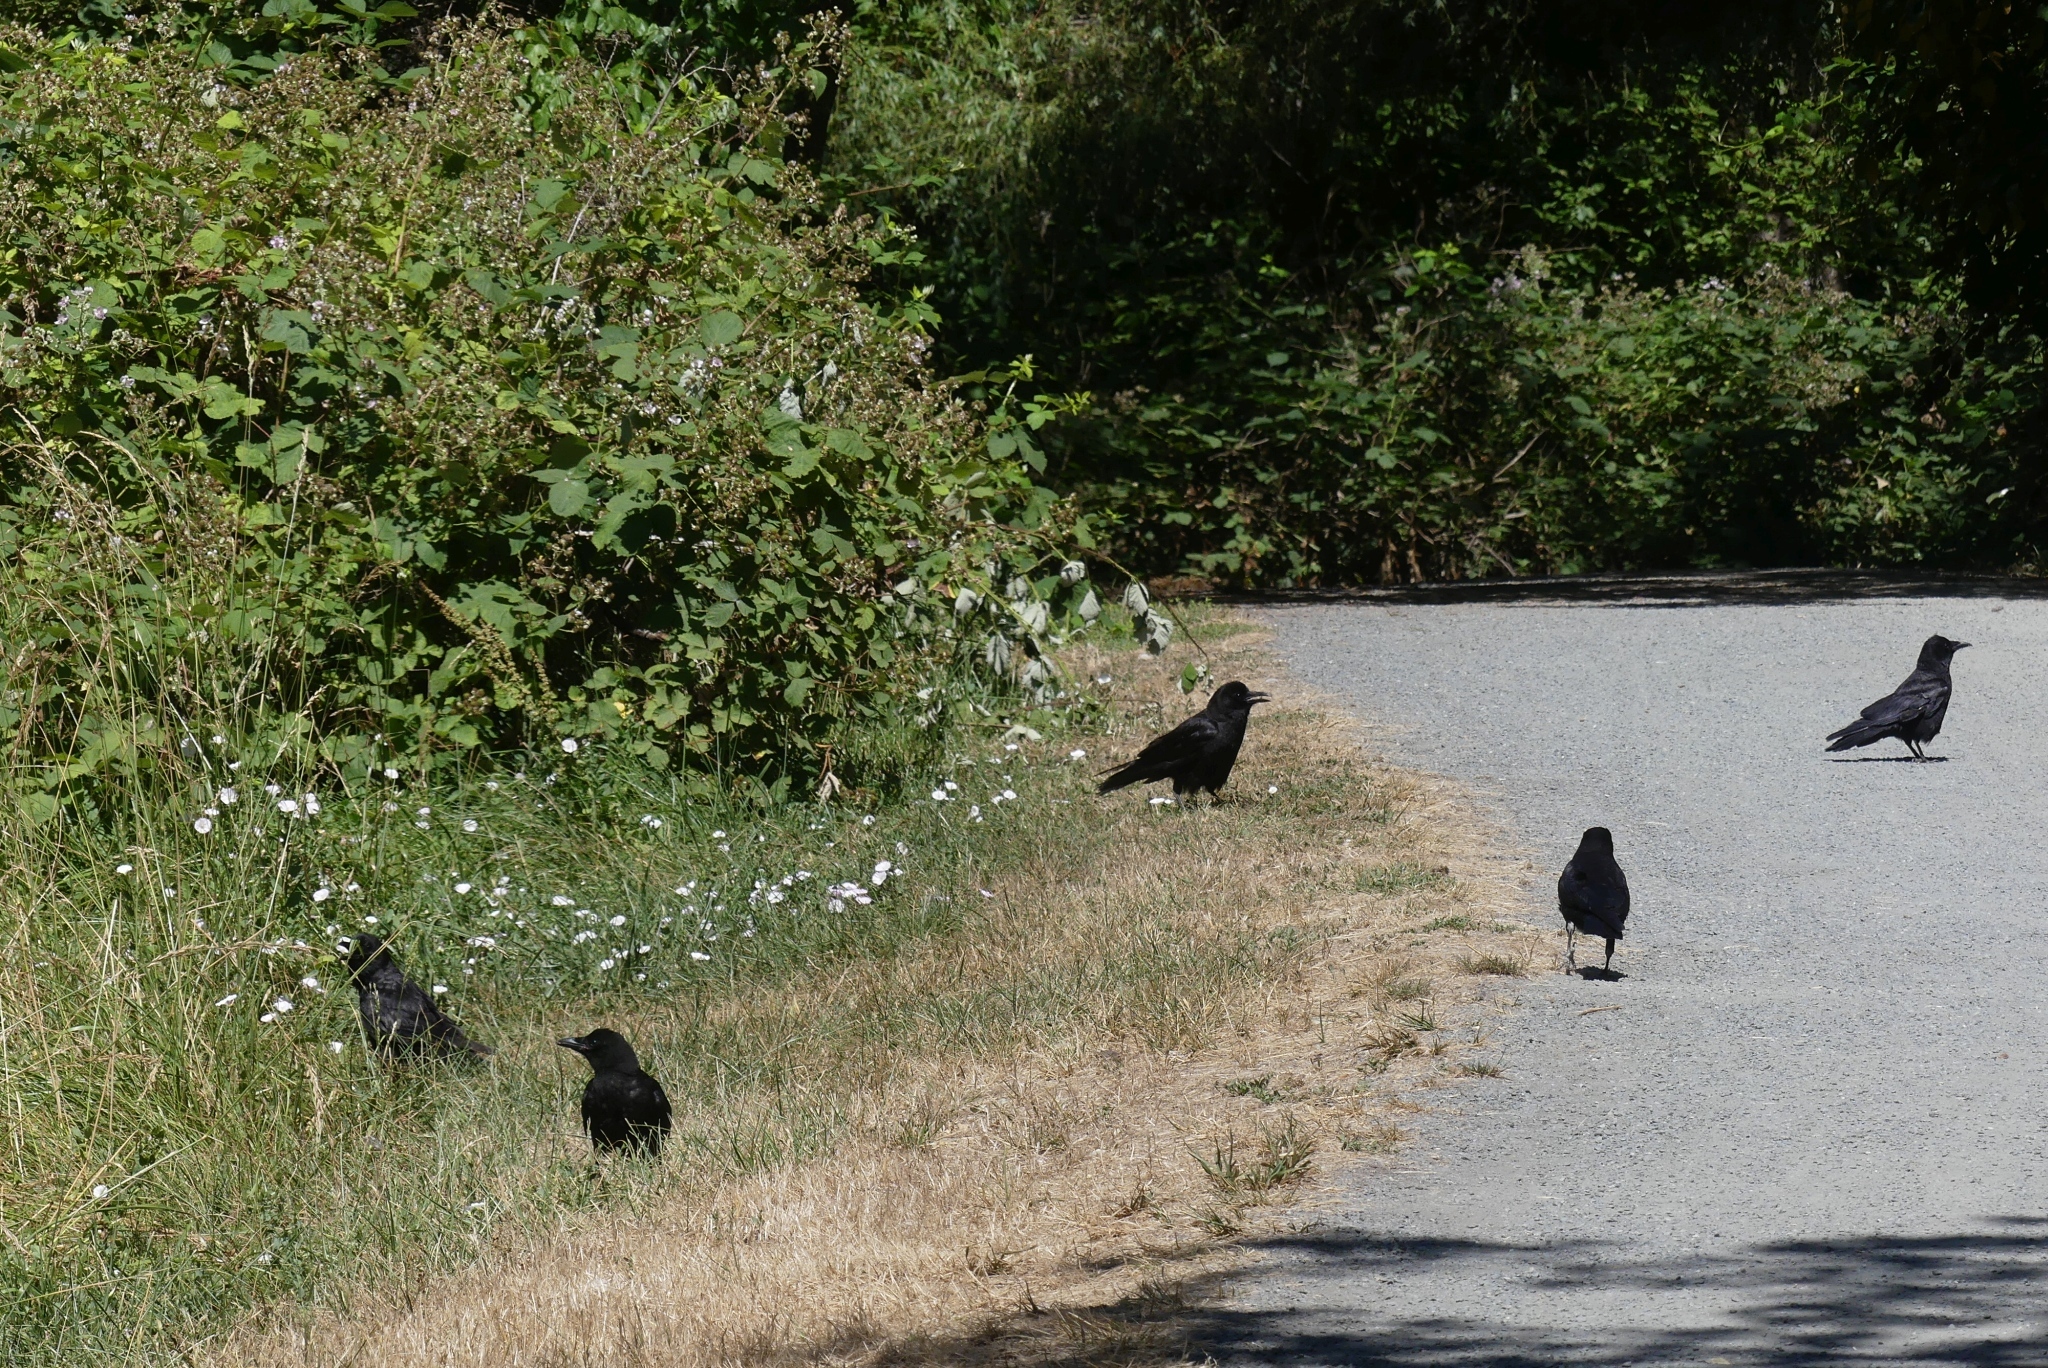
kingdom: Animalia
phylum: Chordata
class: Aves
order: Passeriformes
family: Corvidae
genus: Corvus
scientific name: Corvus brachyrhynchos
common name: American crow
